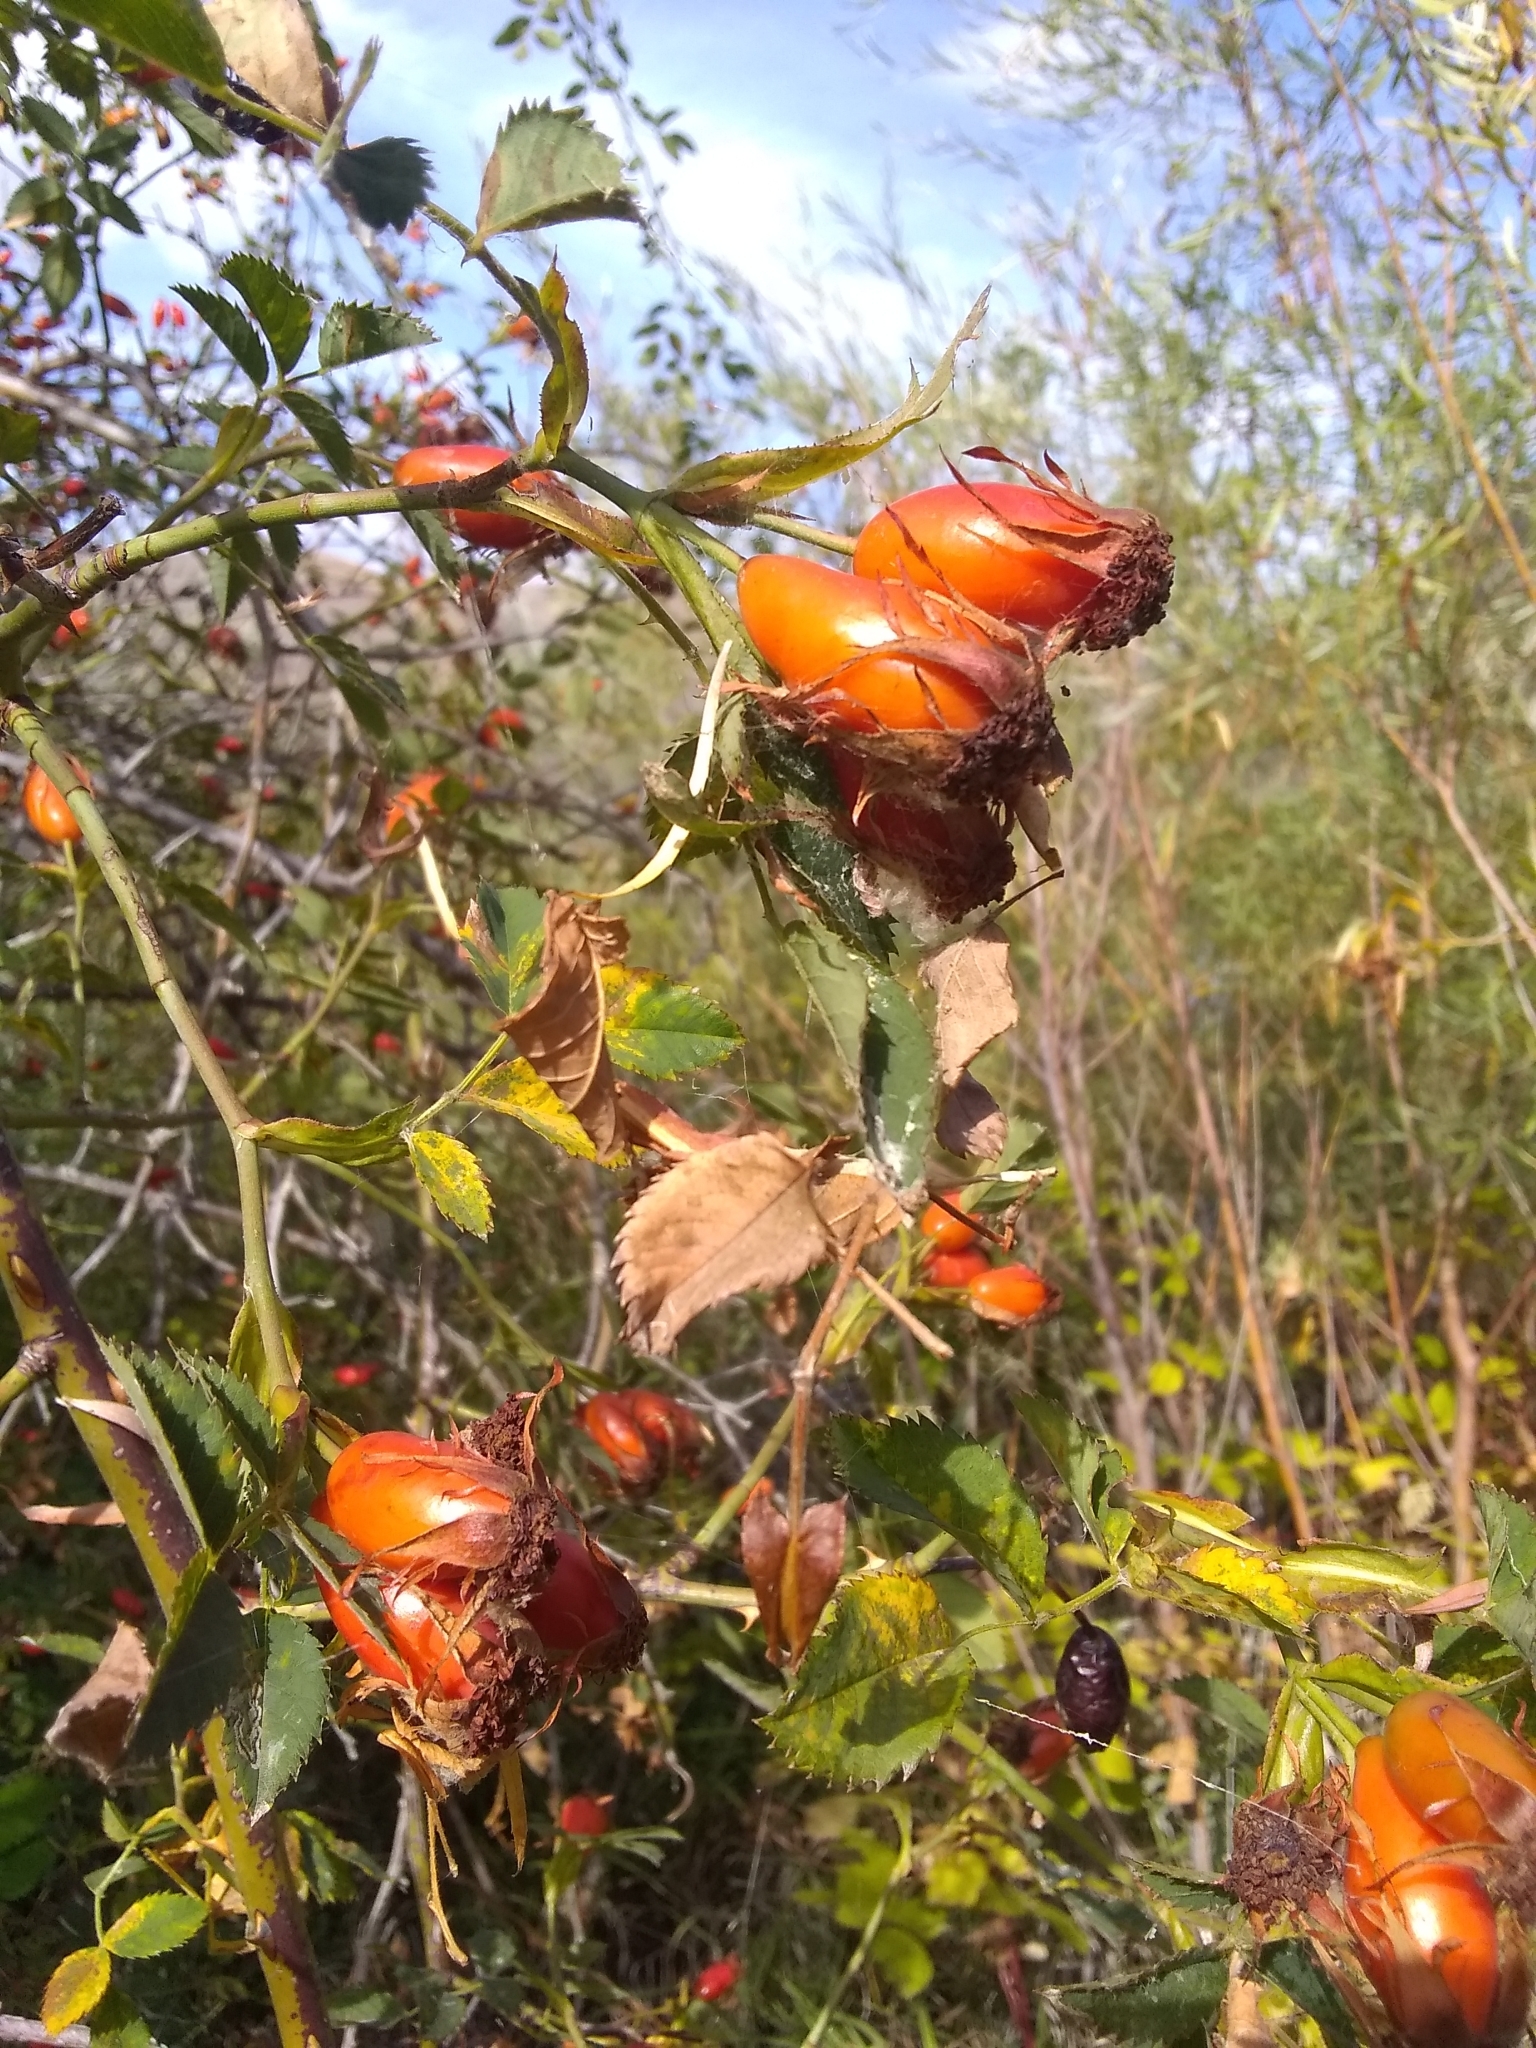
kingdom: Plantae
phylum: Tracheophyta
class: Magnoliopsida
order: Rosales
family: Rosaceae
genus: Rosa
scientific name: Rosa canina
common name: Dog rose
